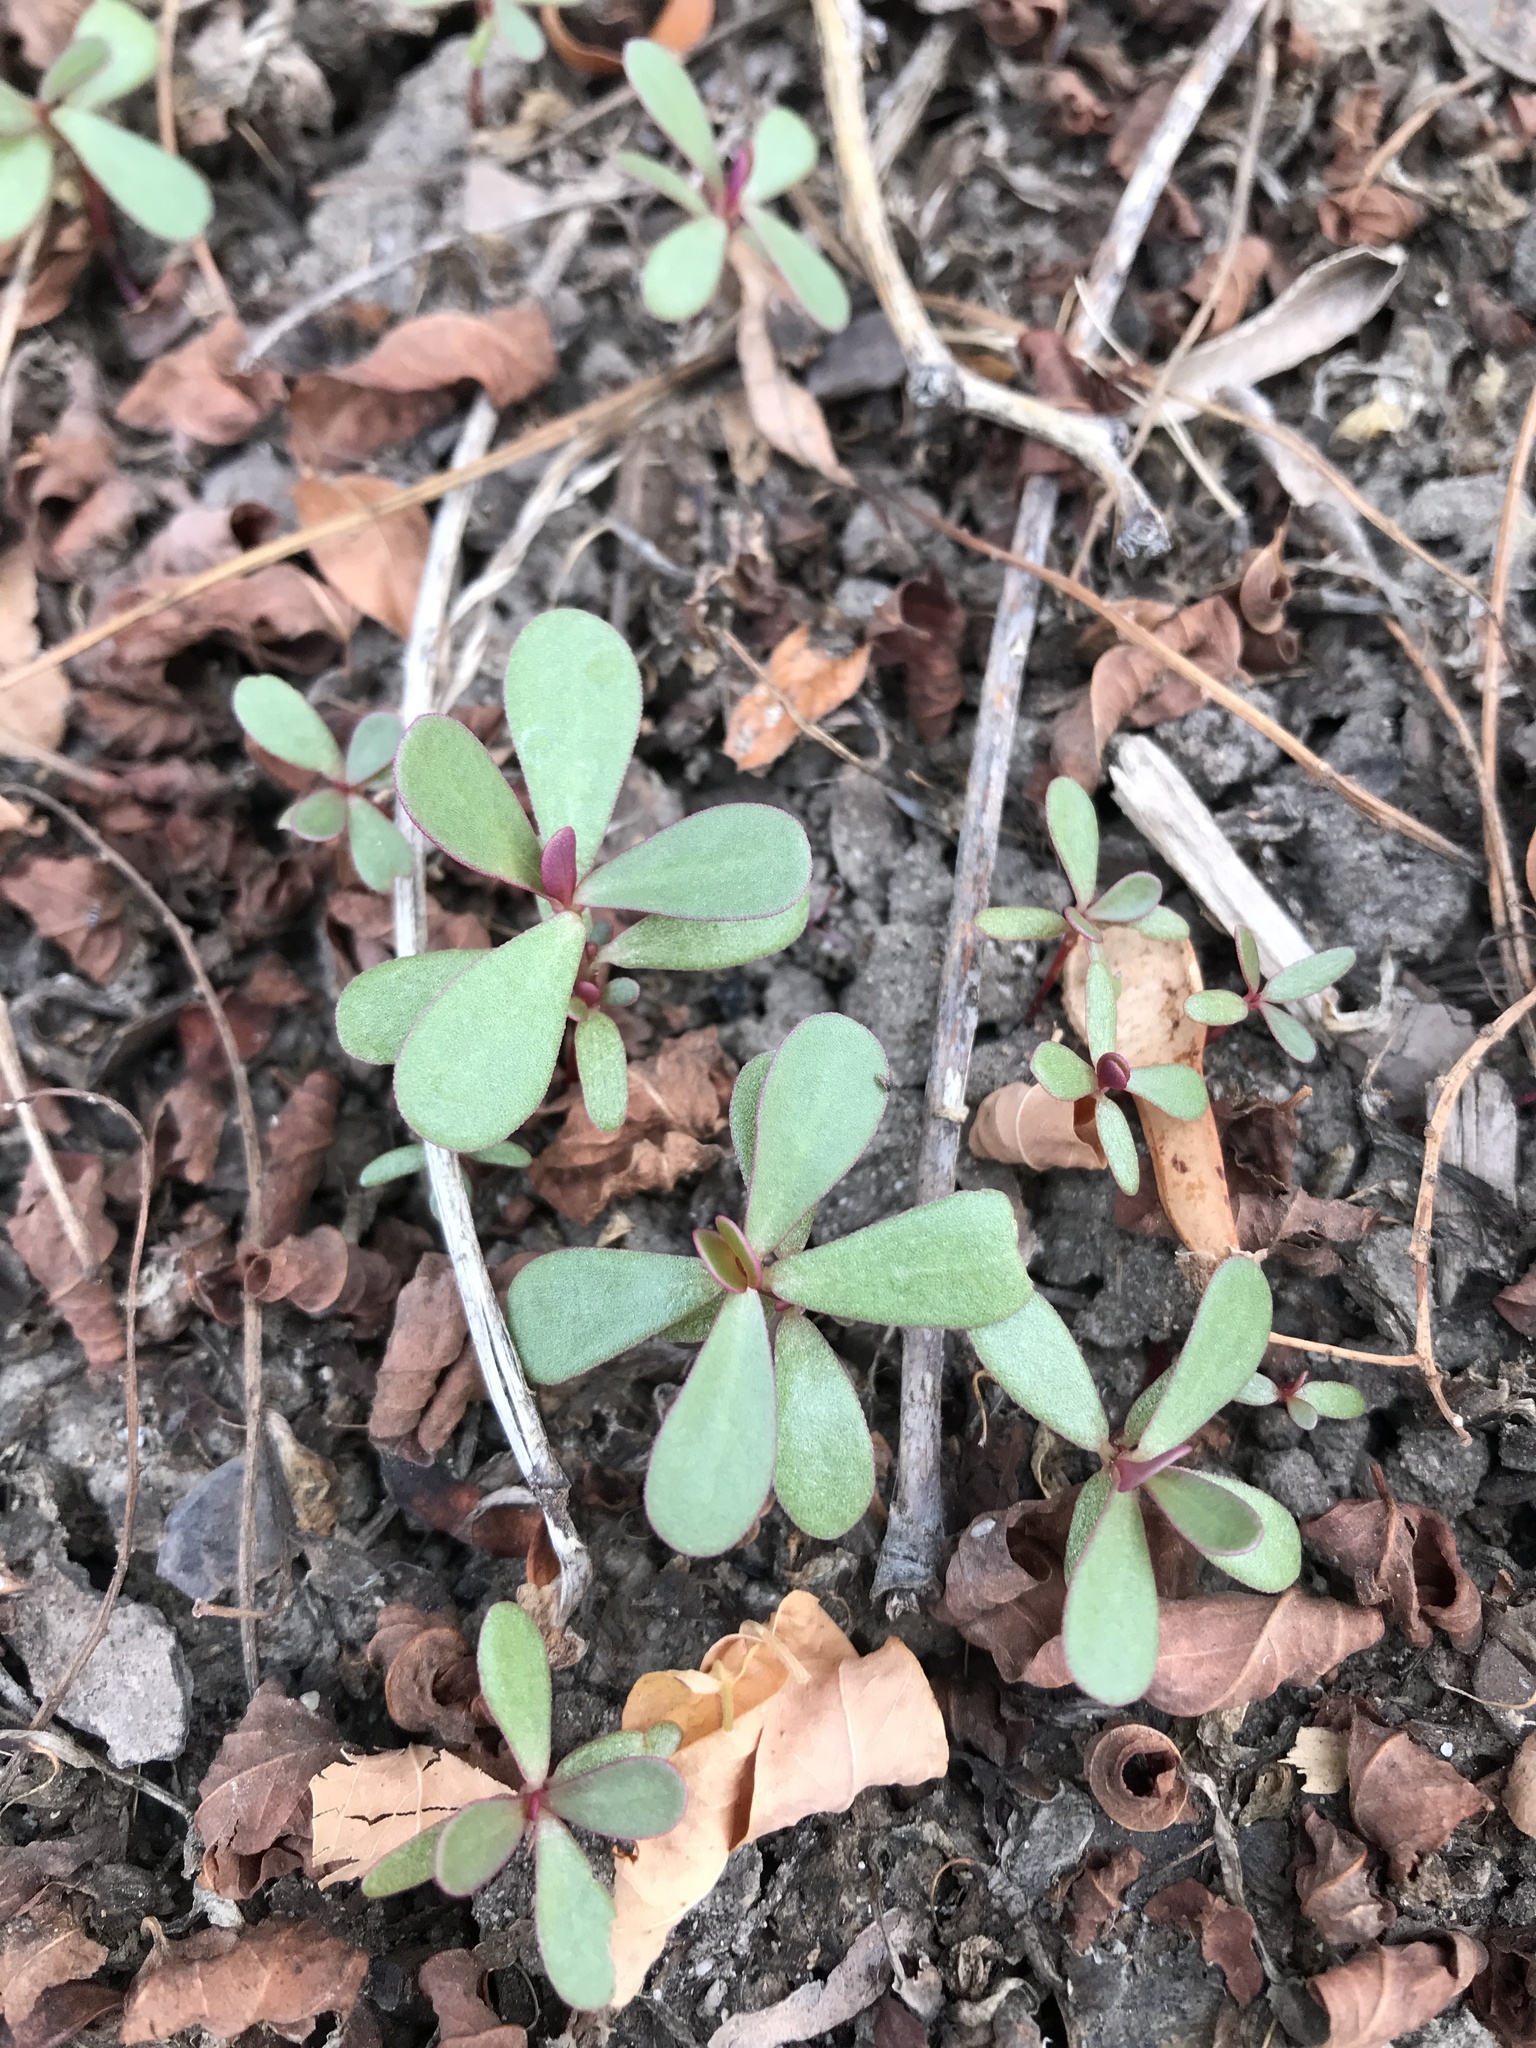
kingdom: Plantae
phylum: Tracheophyta
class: Magnoliopsida
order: Caryophyllales
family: Portulacaceae
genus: Portulaca
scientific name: Portulaca oleracea
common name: Common purslane
